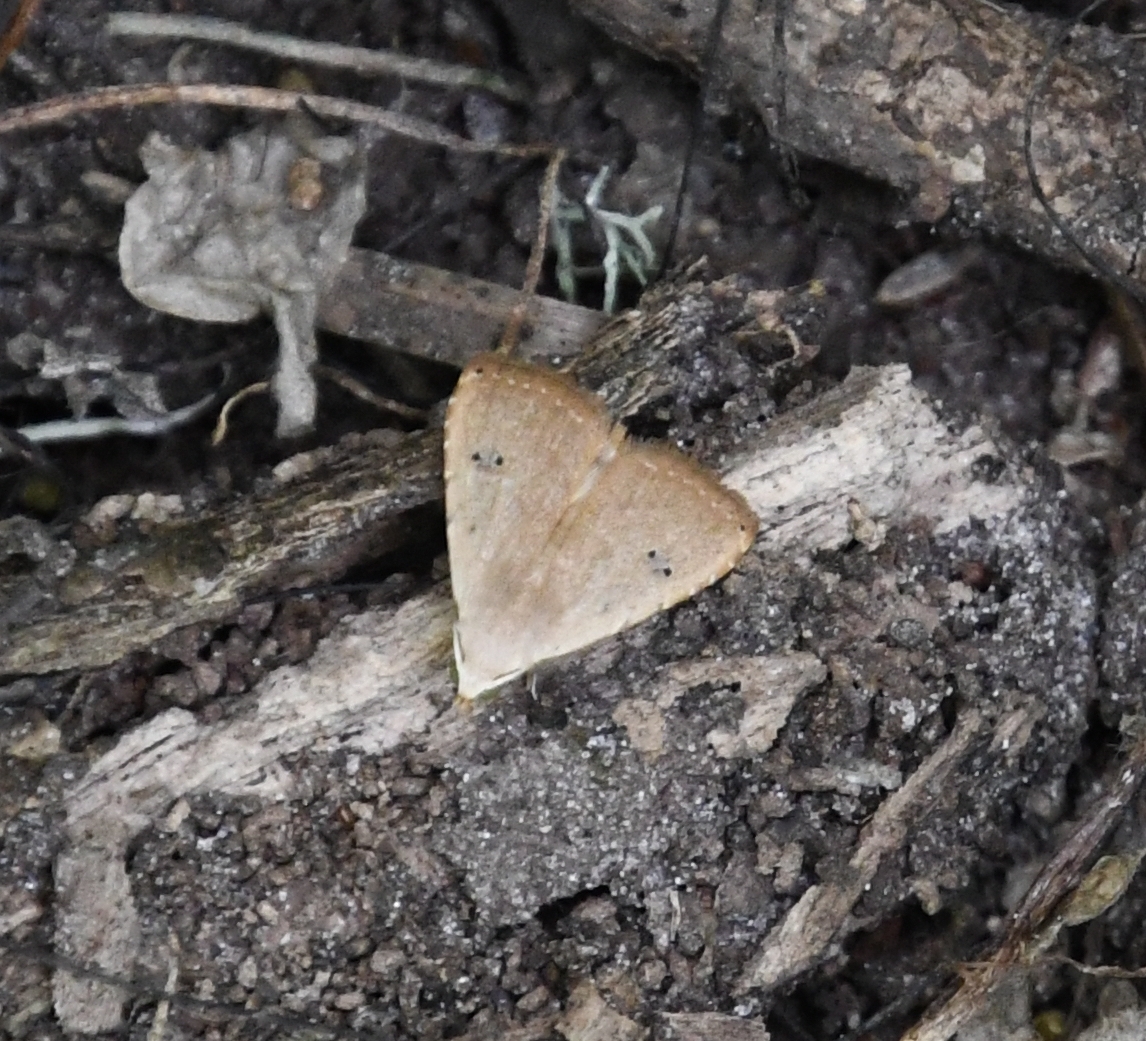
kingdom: Animalia
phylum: Arthropoda
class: Insecta
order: Lepidoptera
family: Erebidae
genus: Rivula
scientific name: Rivula pusilla
